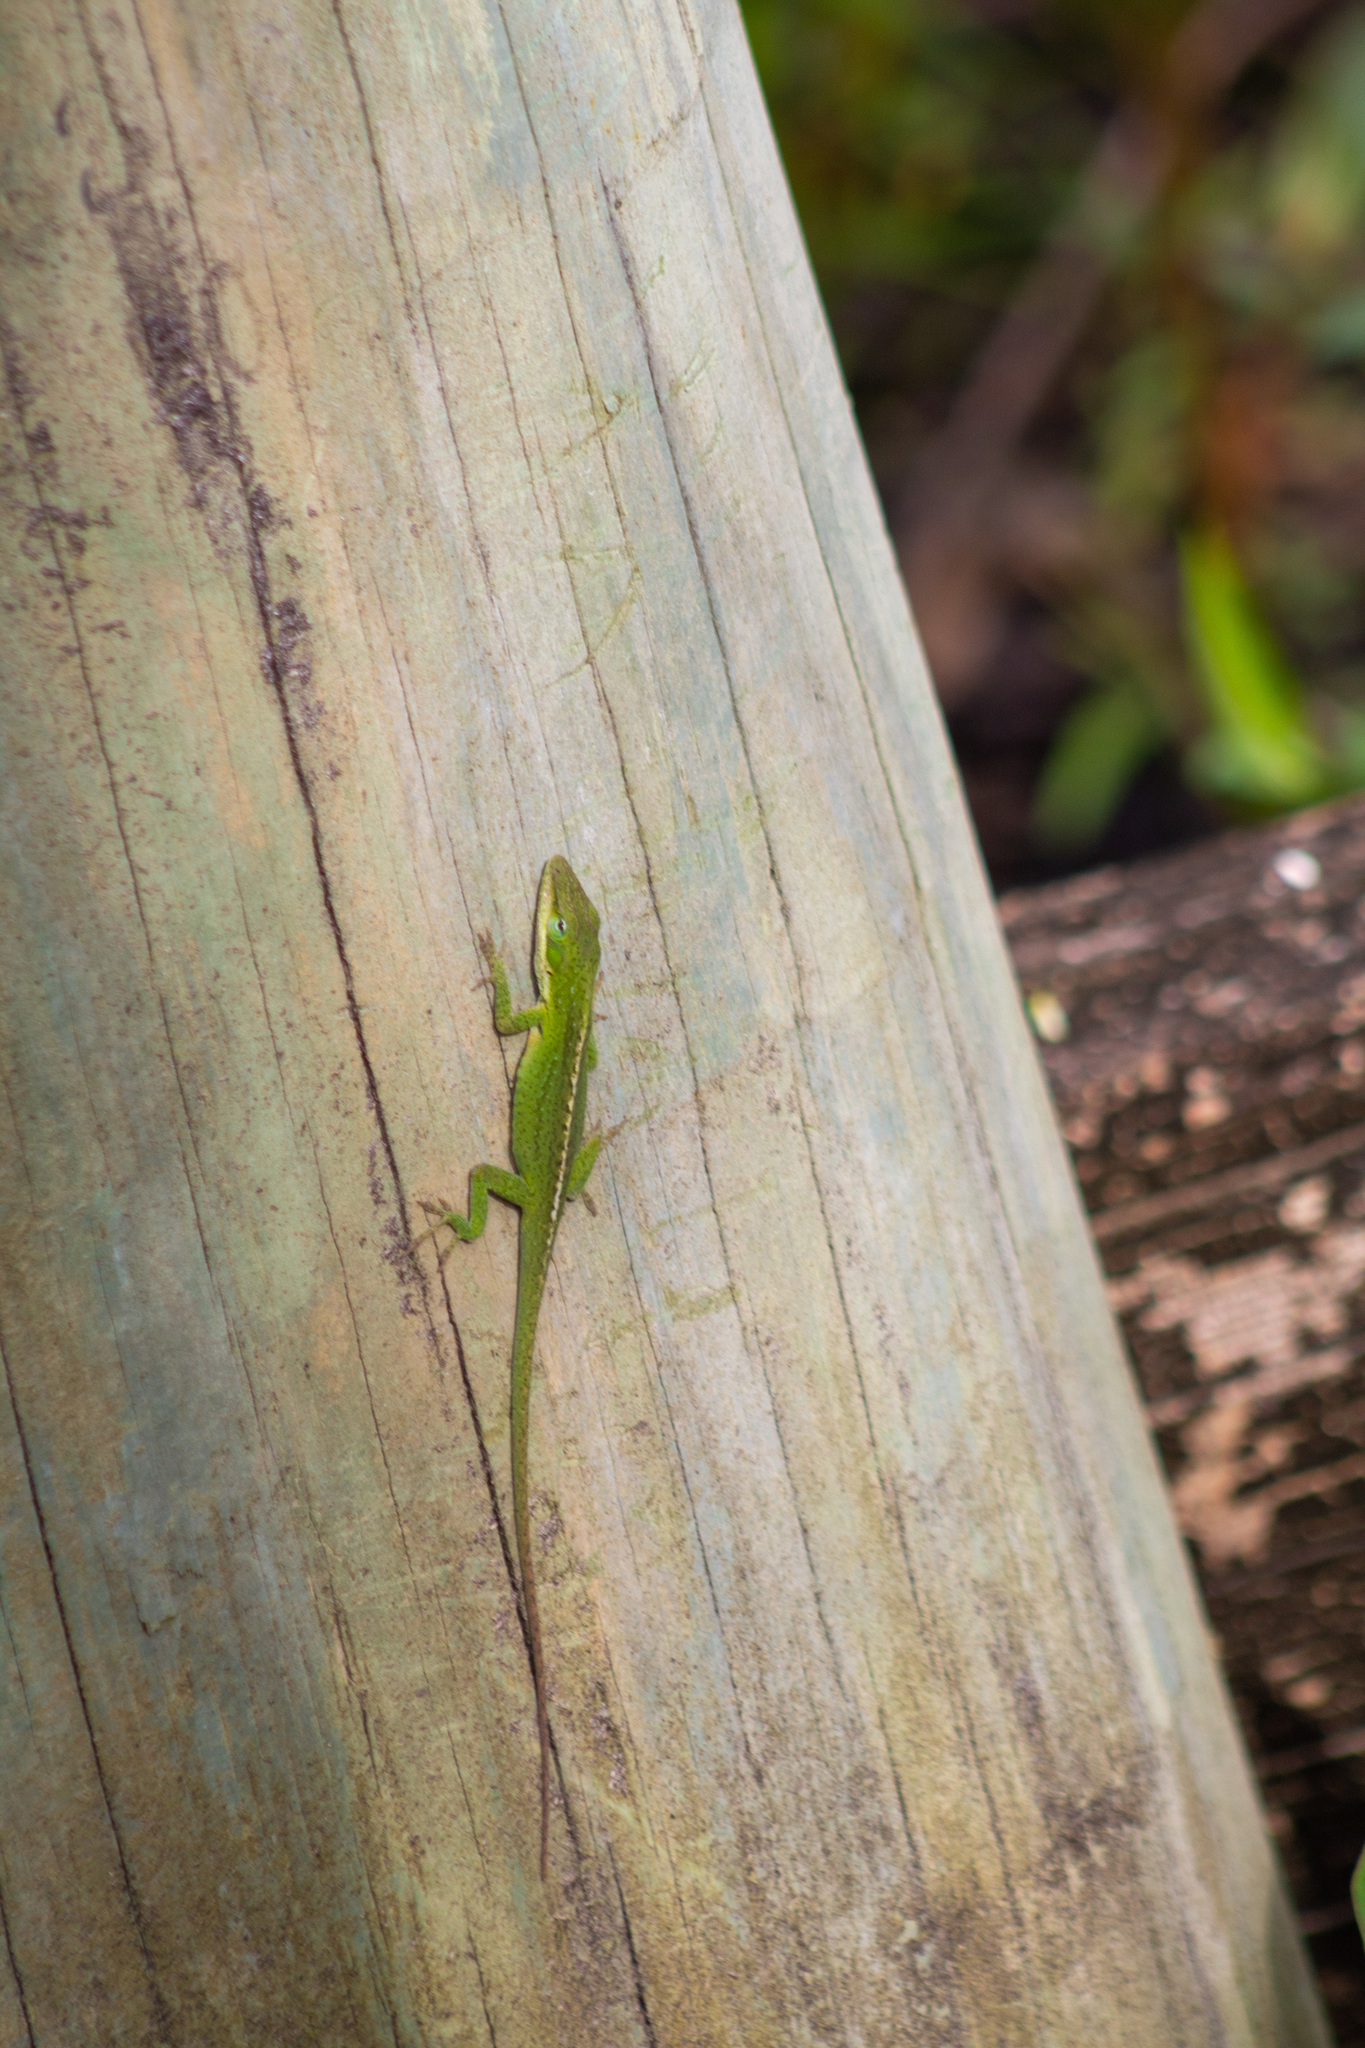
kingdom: Animalia
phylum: Chordata
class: Squamata
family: Dactyloidae
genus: Anolis
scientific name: Anolis carolinensis
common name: Green anole
